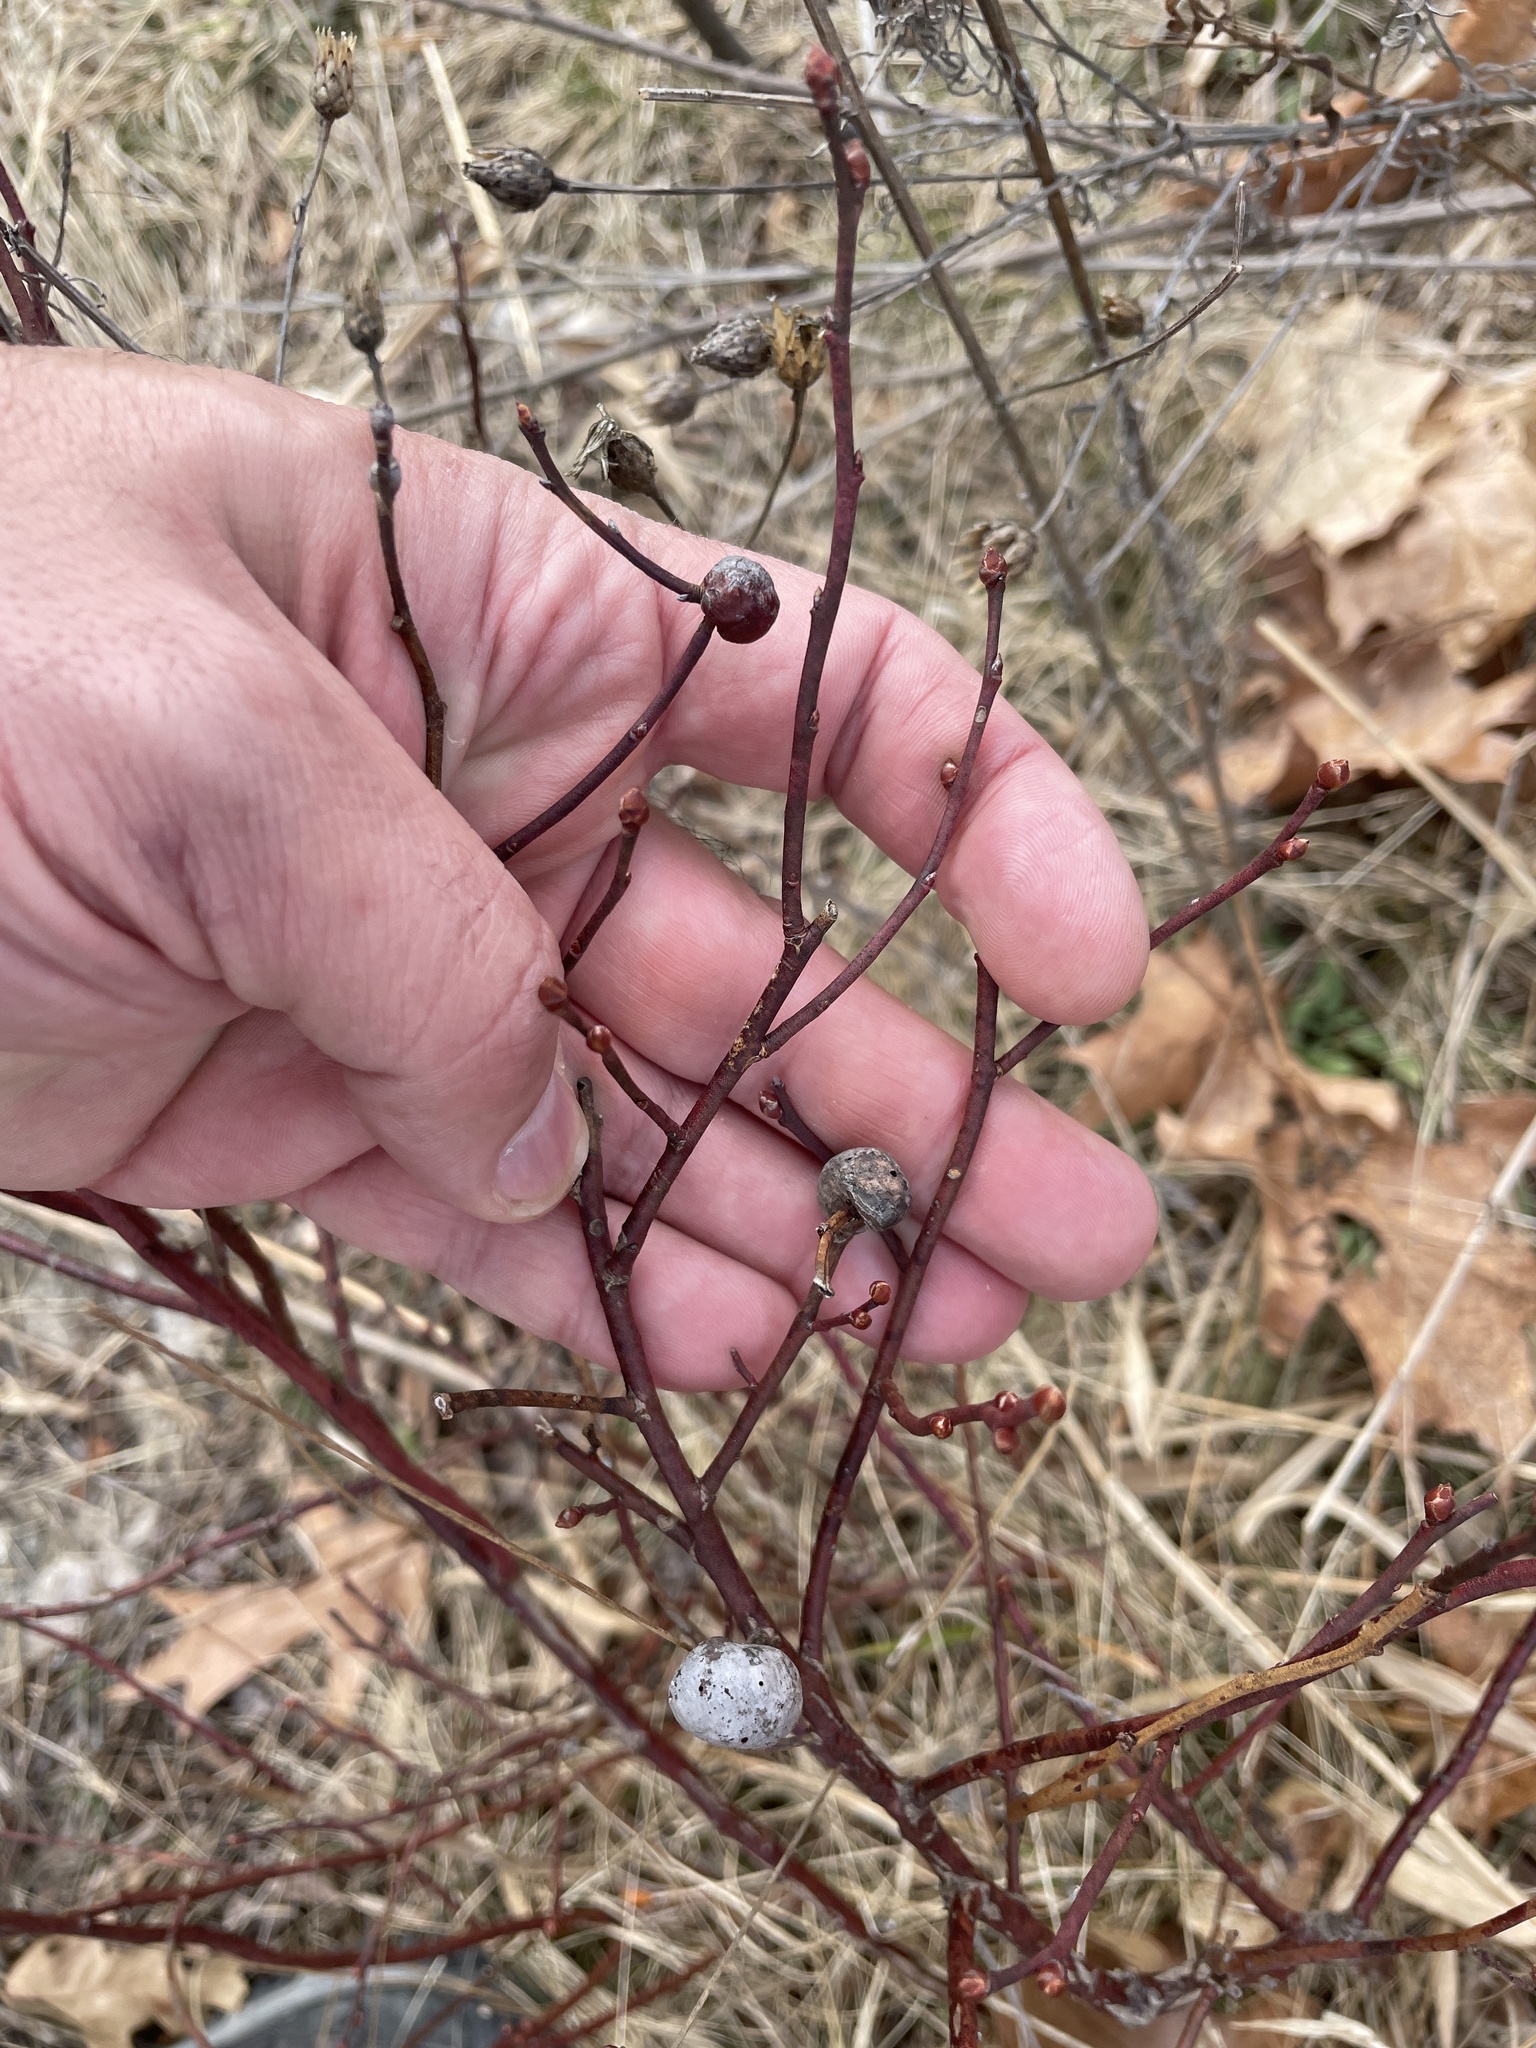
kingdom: Animalia
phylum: Arthropoda
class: Insecta
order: Hymenoptera
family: Pteromalidae
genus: Hemadas
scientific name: Hemadas nubilipennis
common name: Blueberry stem gall wasp
